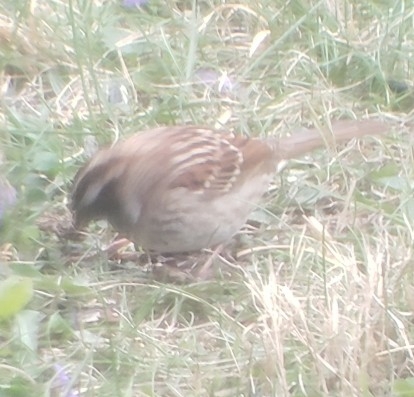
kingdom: Animalia
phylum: Chordata
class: Aves
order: Passeriformes
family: Passerellidae
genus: Zonotrichia
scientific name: Zonotrichia albicollis
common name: White-throated sparrow
